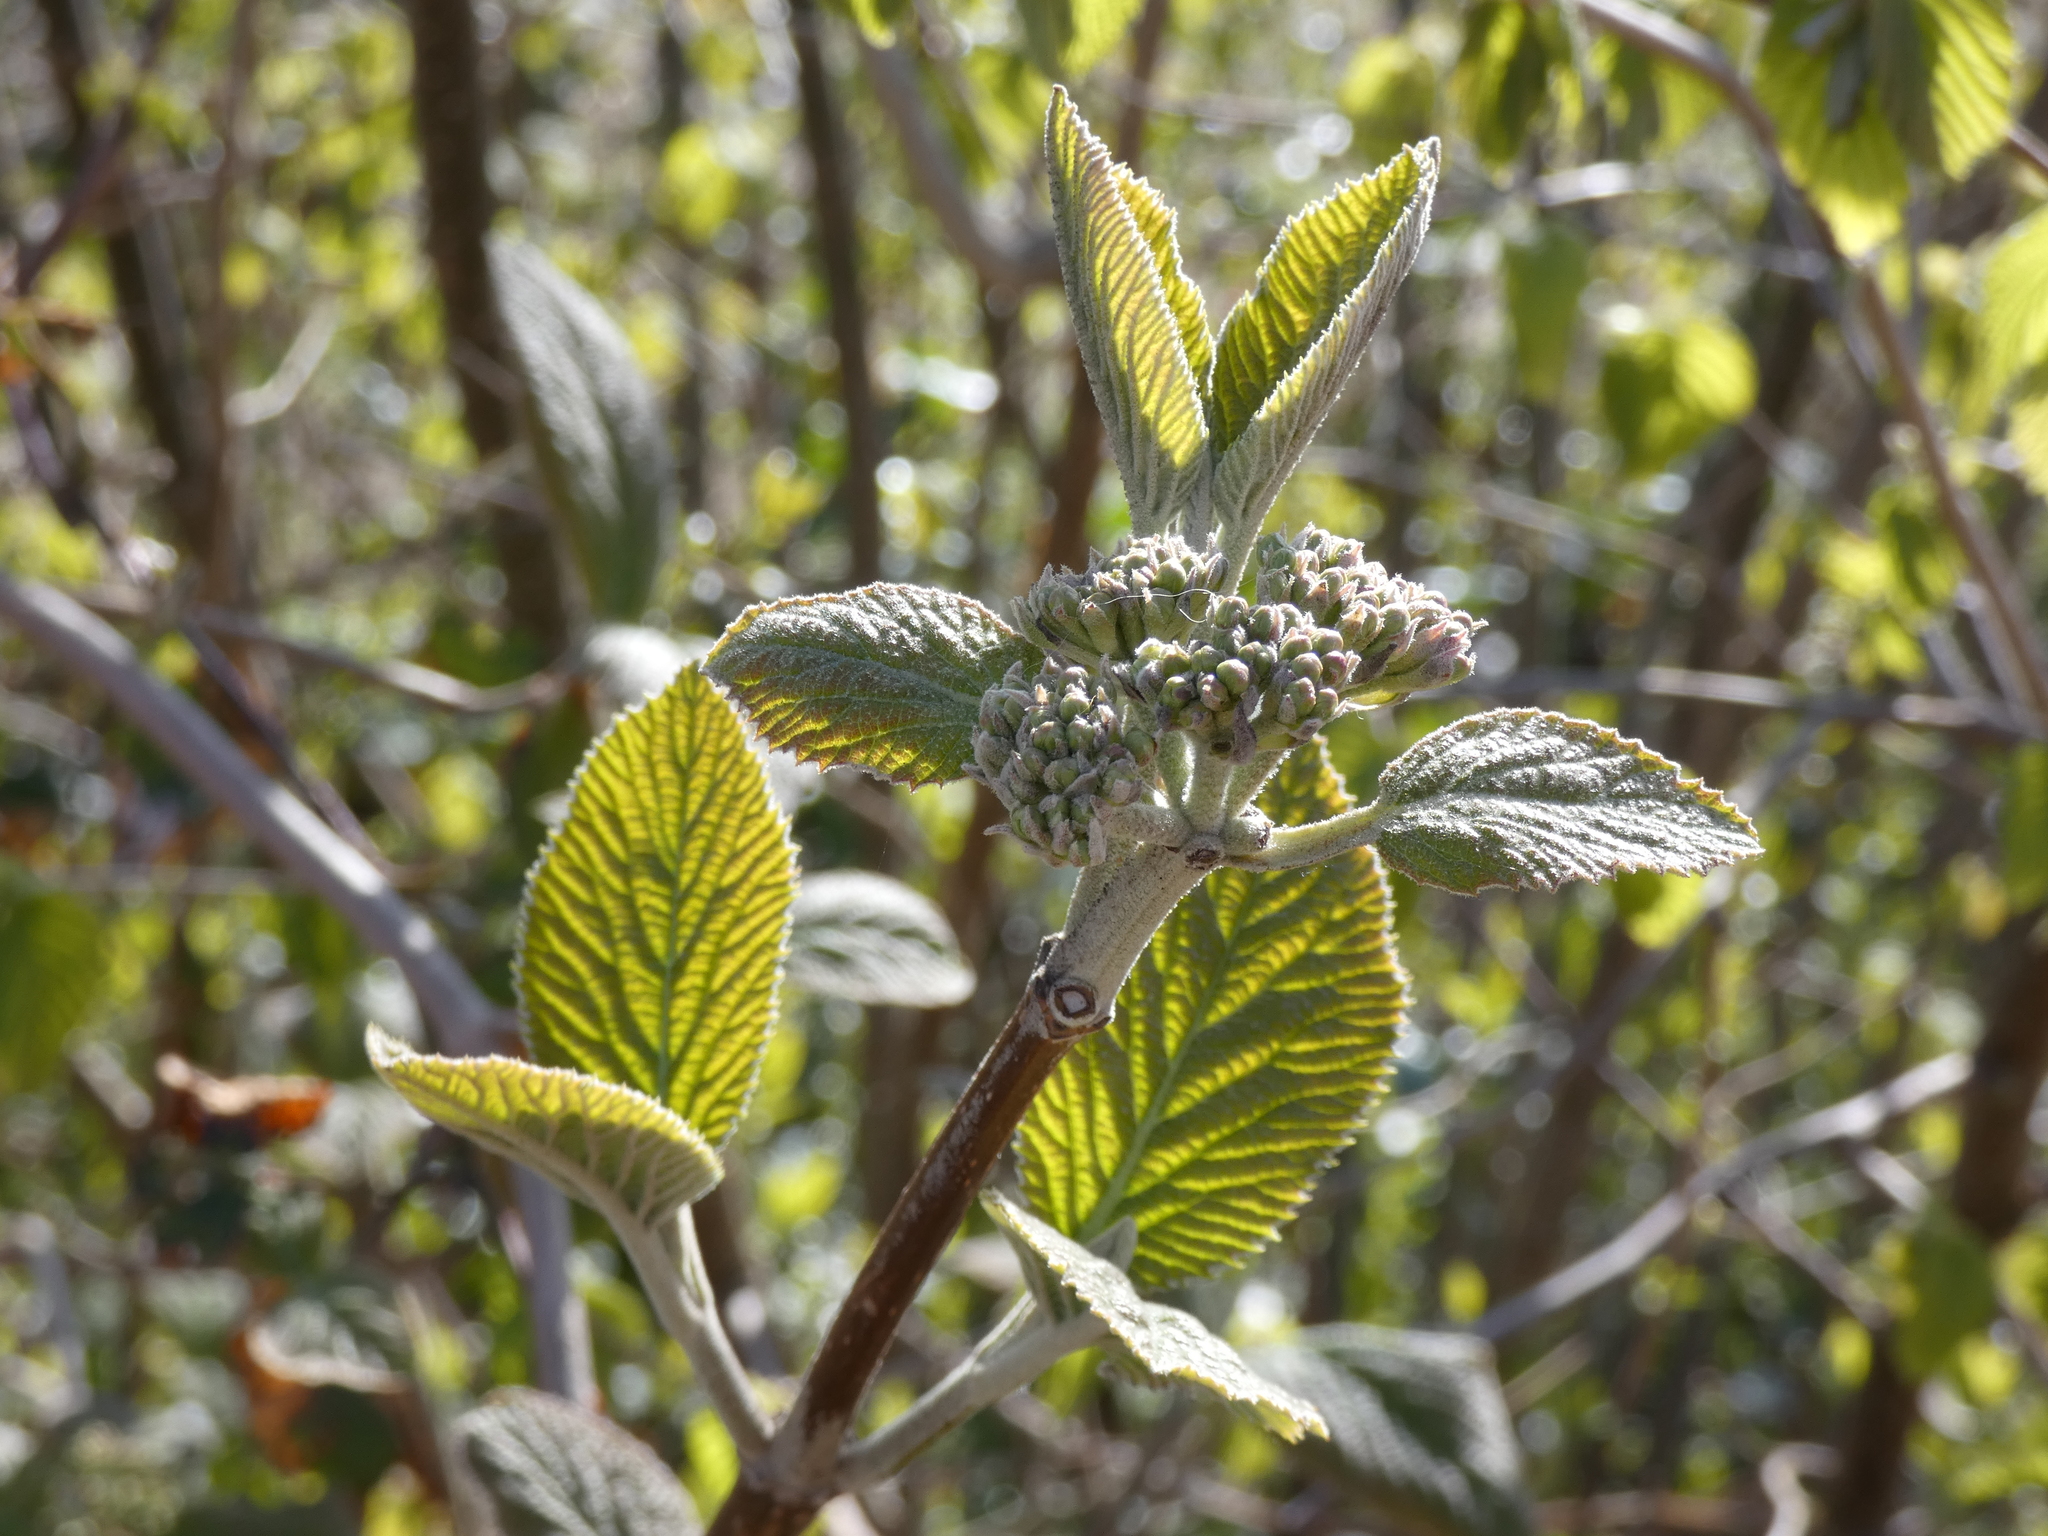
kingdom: Plantae
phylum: Tracheophyta
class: Magnoliopsida
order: Dipsacales
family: Viburnaceae
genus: Viburnum
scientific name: Viburnum lantana
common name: Wayfaring tree
